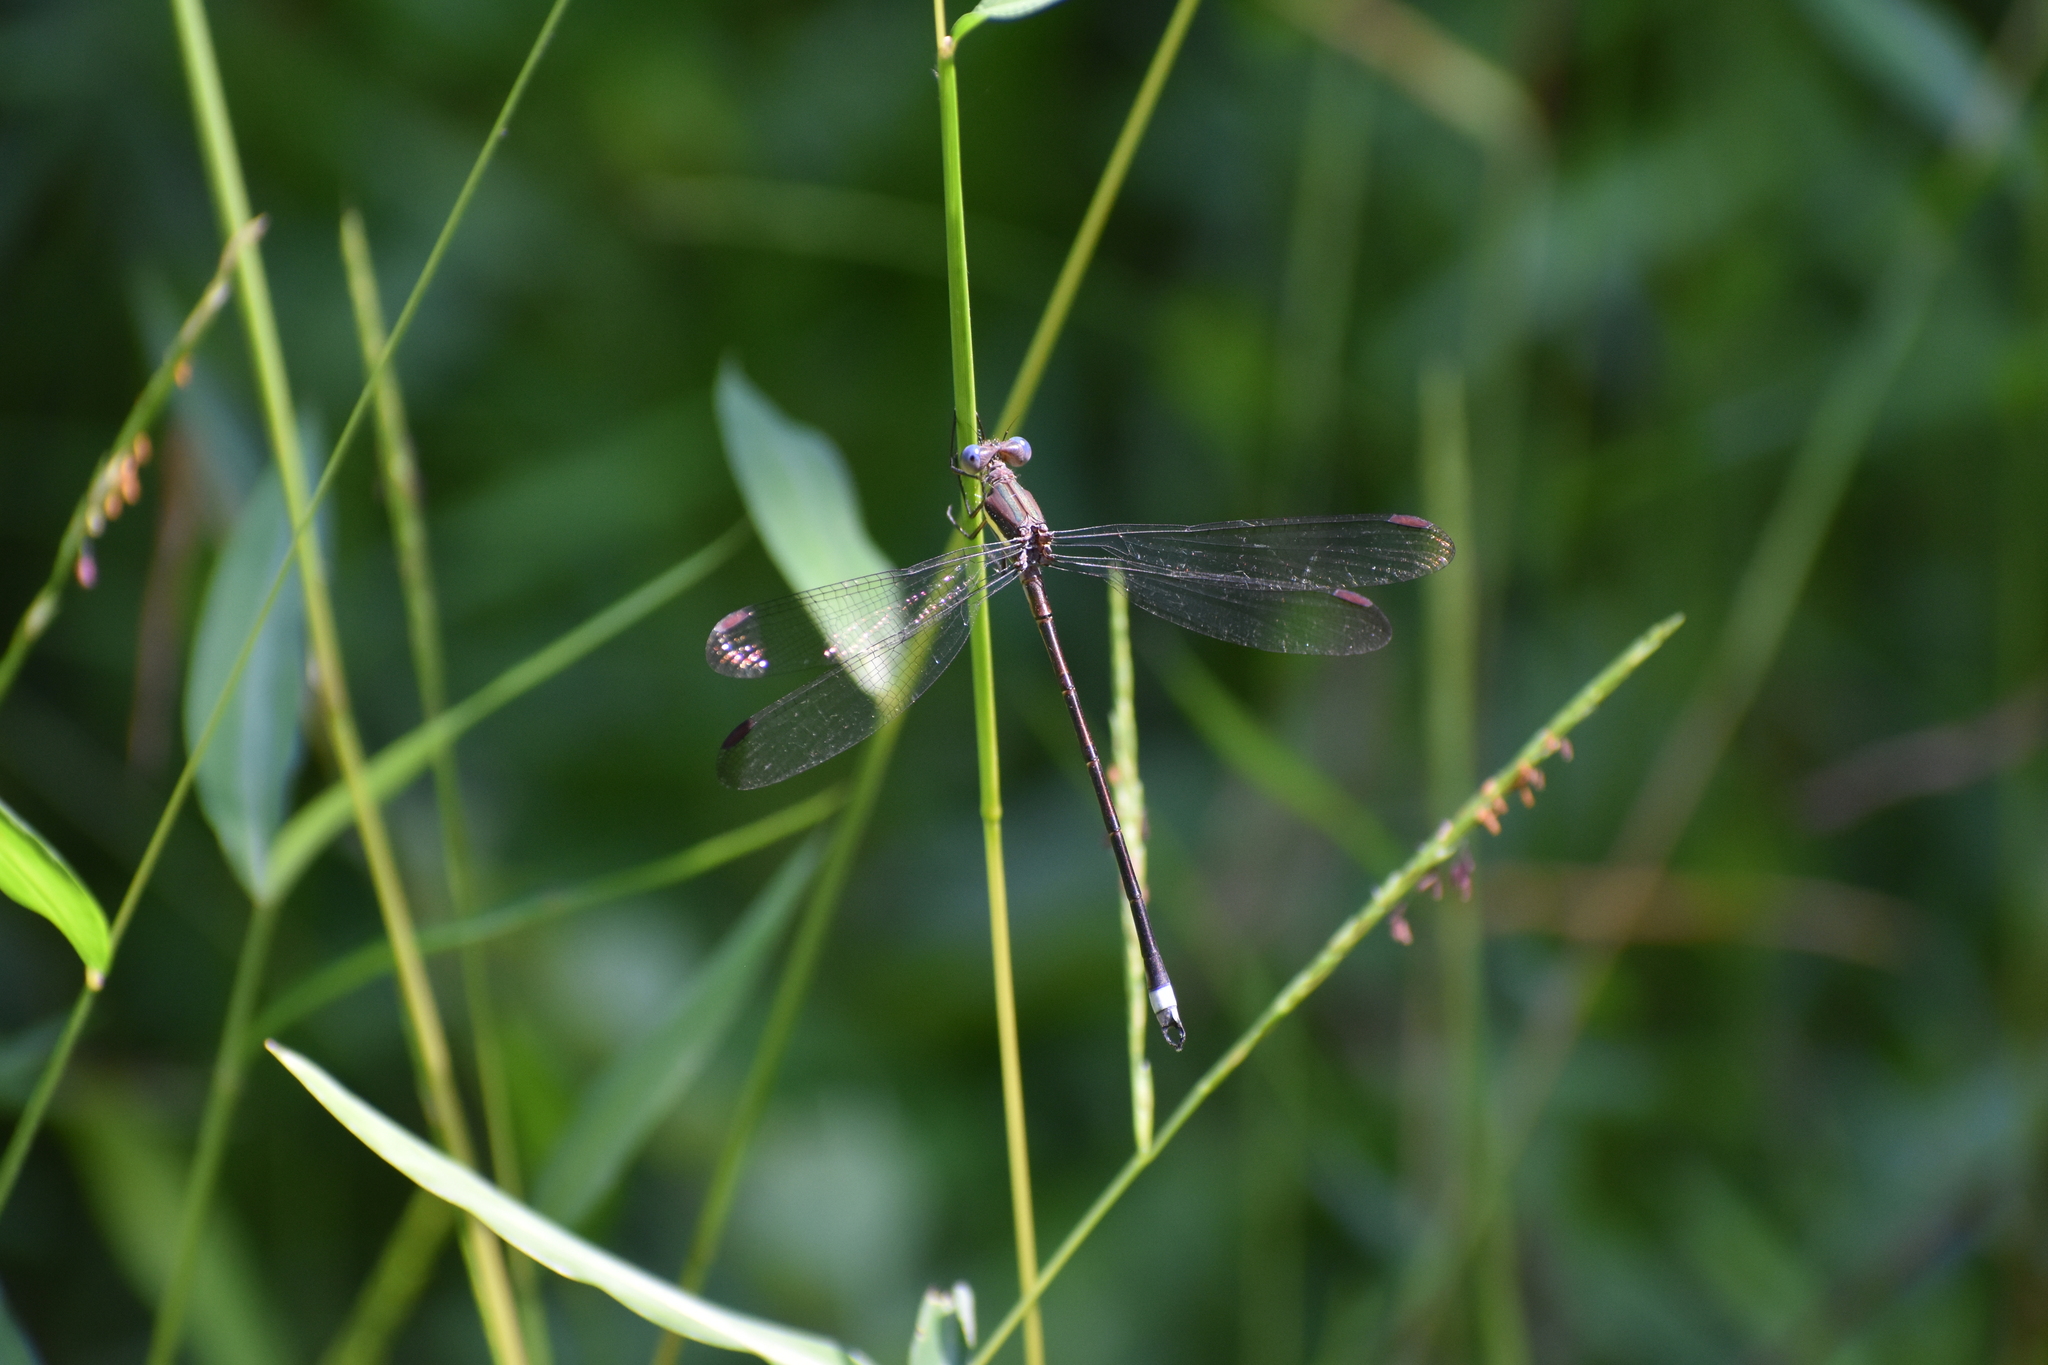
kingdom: Animalia
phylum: Arthropoda
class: Insecta
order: Odonata
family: Lestidae
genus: Archilestes
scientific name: Archilestes grandis
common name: Great spreadwing
